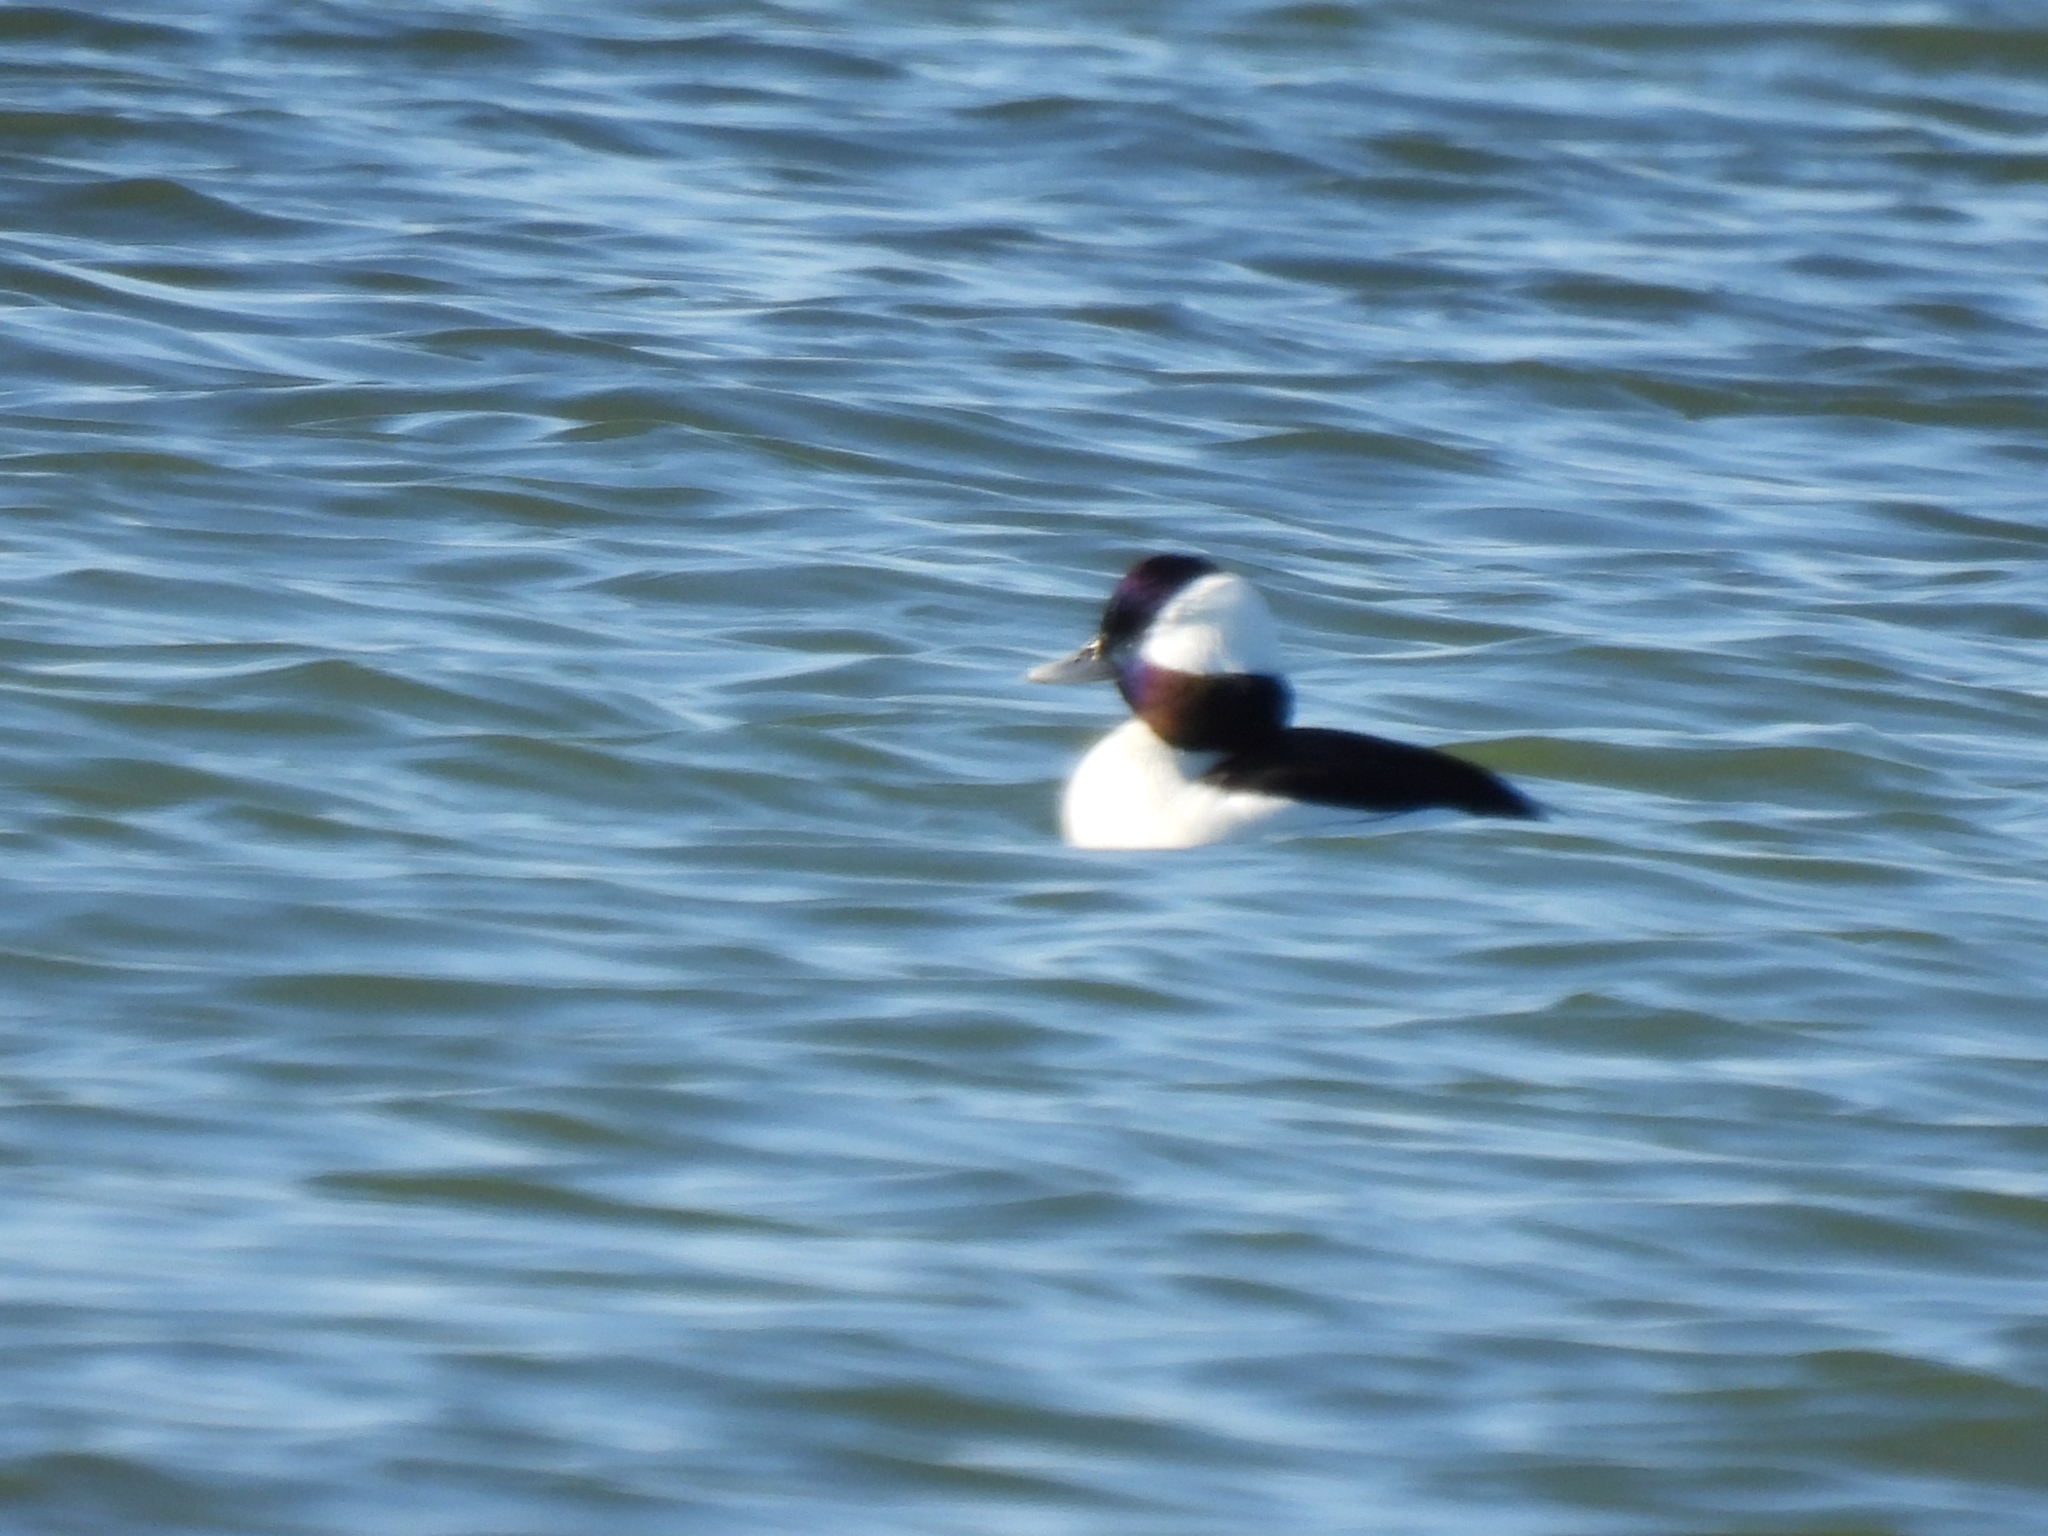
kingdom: Animalia
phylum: Chordata
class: Aves
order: Anseriformes
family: Anatidae
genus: Bucephala
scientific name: Bucephala albeola
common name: Bufflehead
